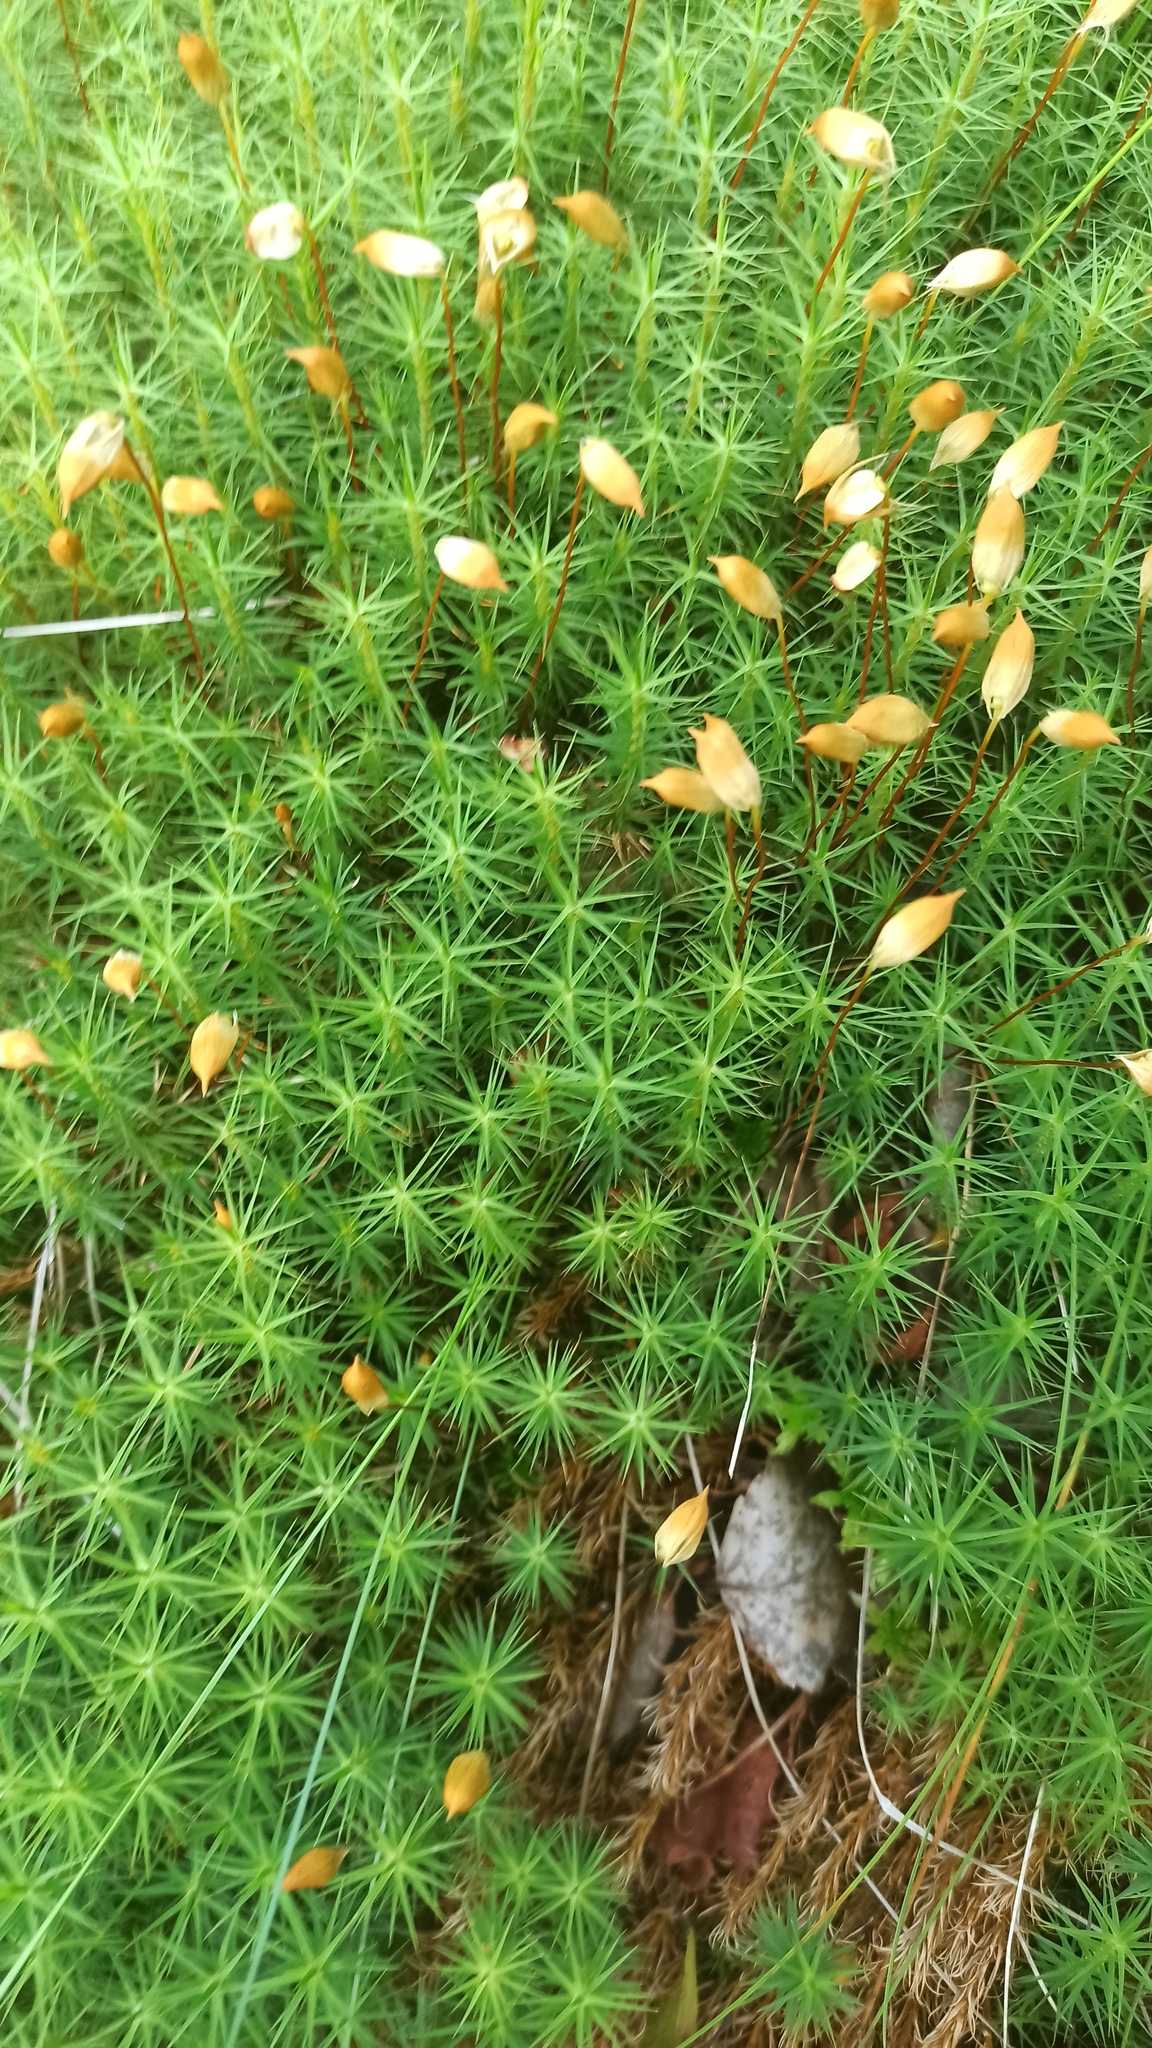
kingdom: Plantae
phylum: Bryophyta
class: Polytrichopsida
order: Polytrichales
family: Polytrichaceae
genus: Polytrichum
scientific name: Polytrichum commune
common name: Common haircap
